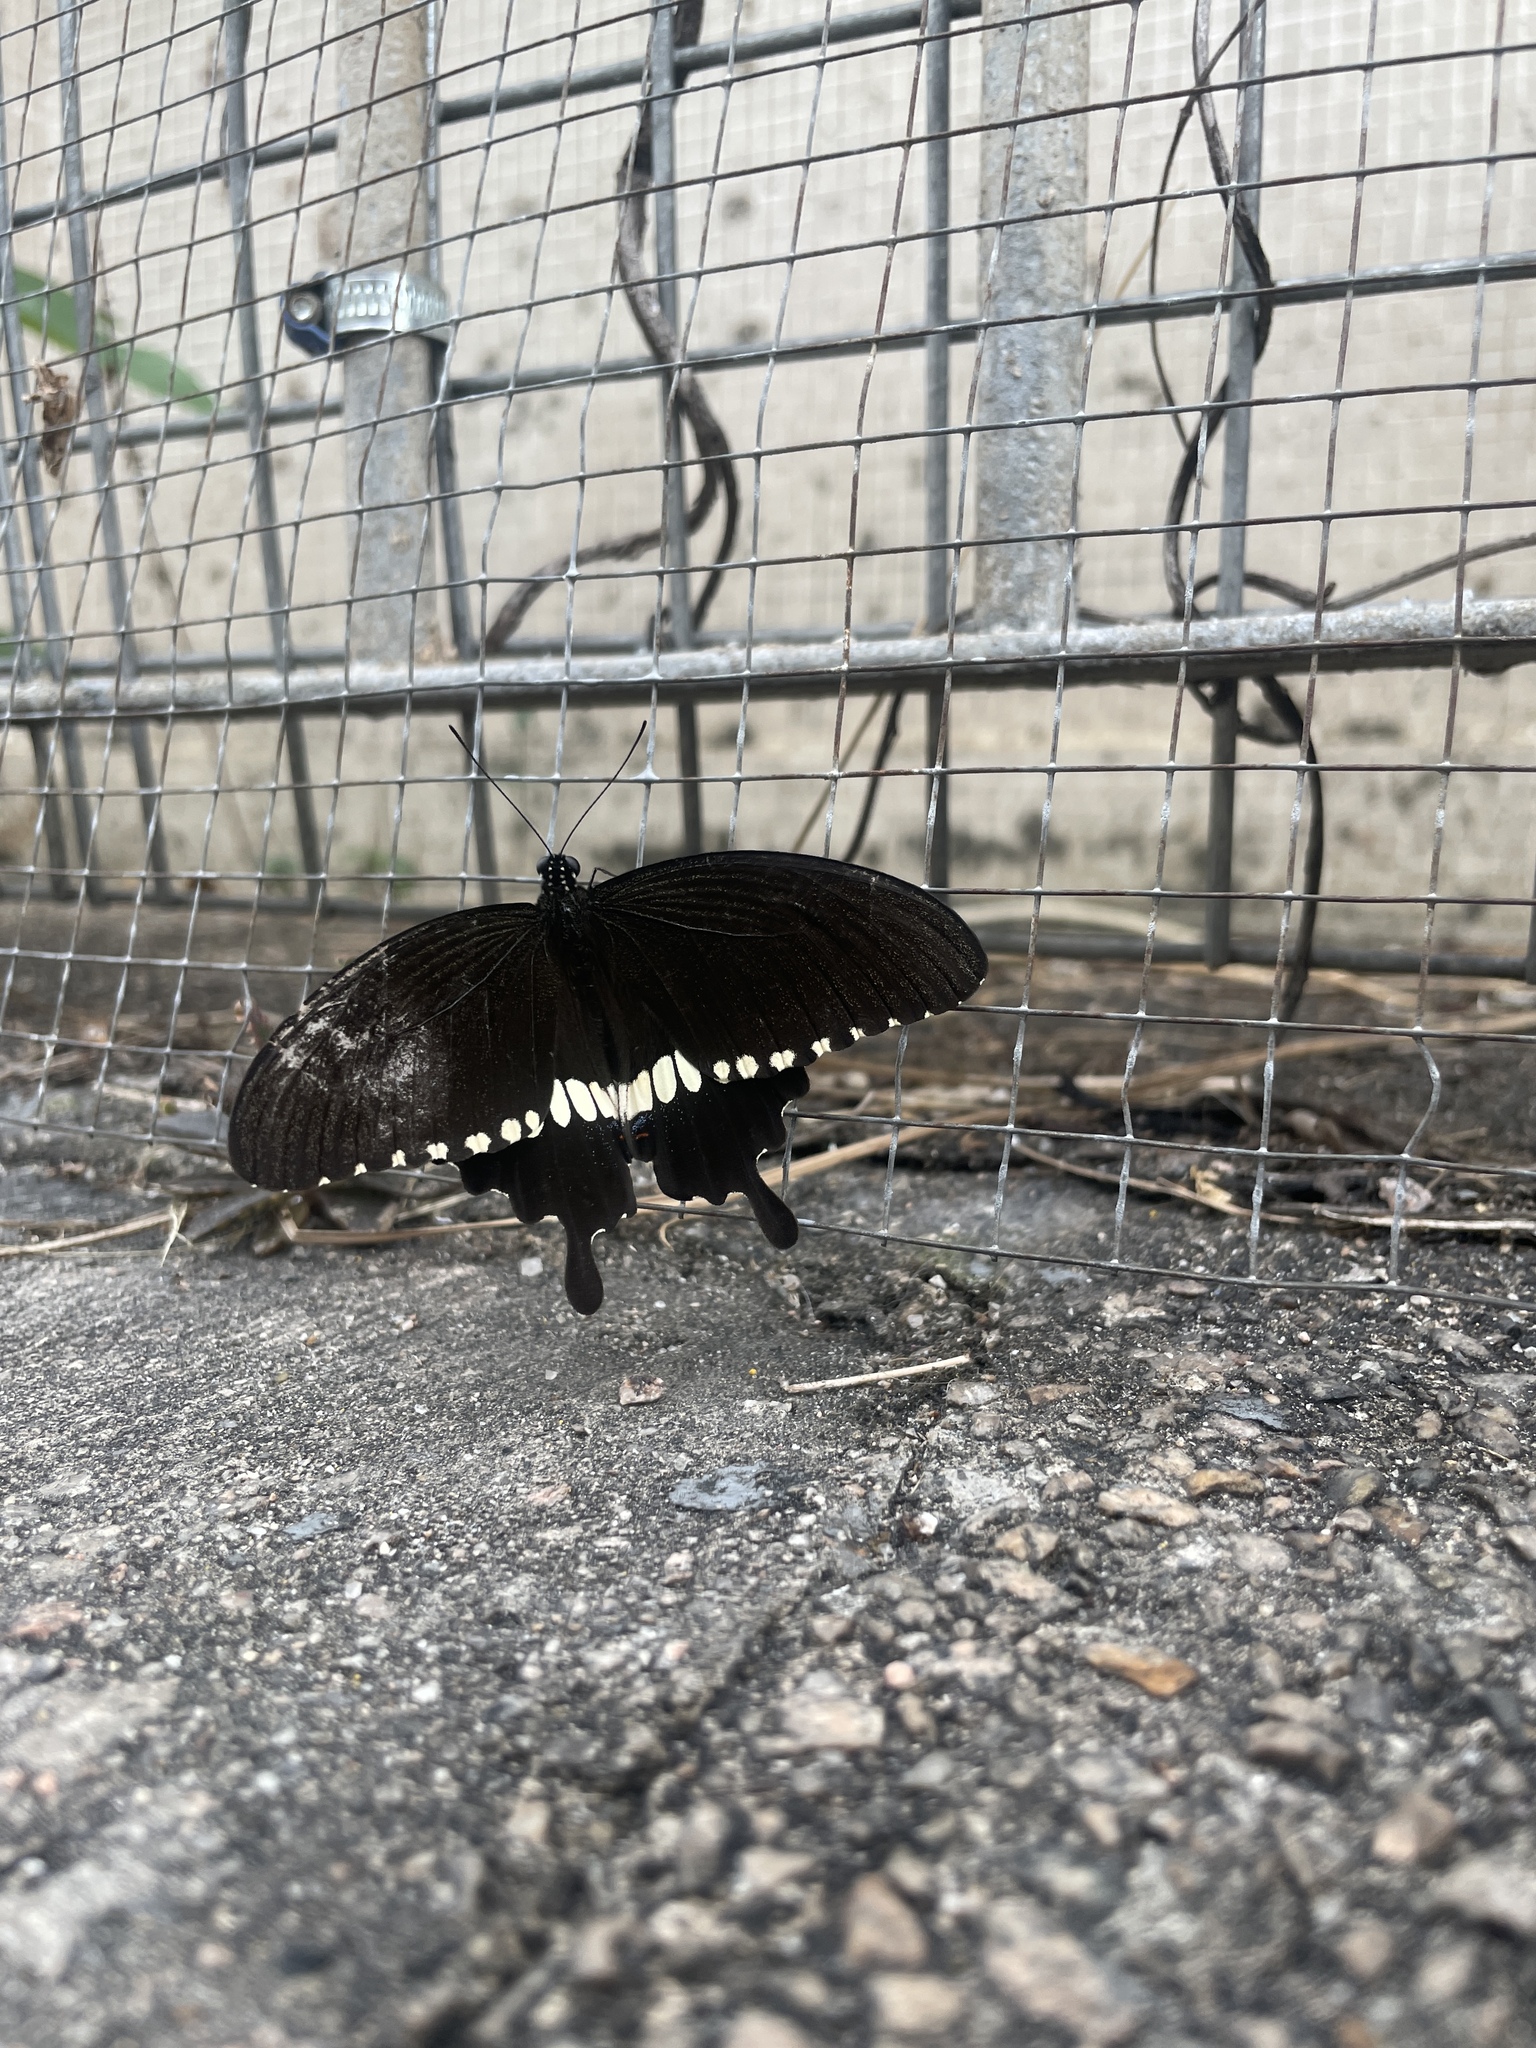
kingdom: Animalia
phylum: Arthropoda
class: Insecta
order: Lepidoptera
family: Papilionidae
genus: Papilio
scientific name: Papilio polytes
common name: Common mormon
